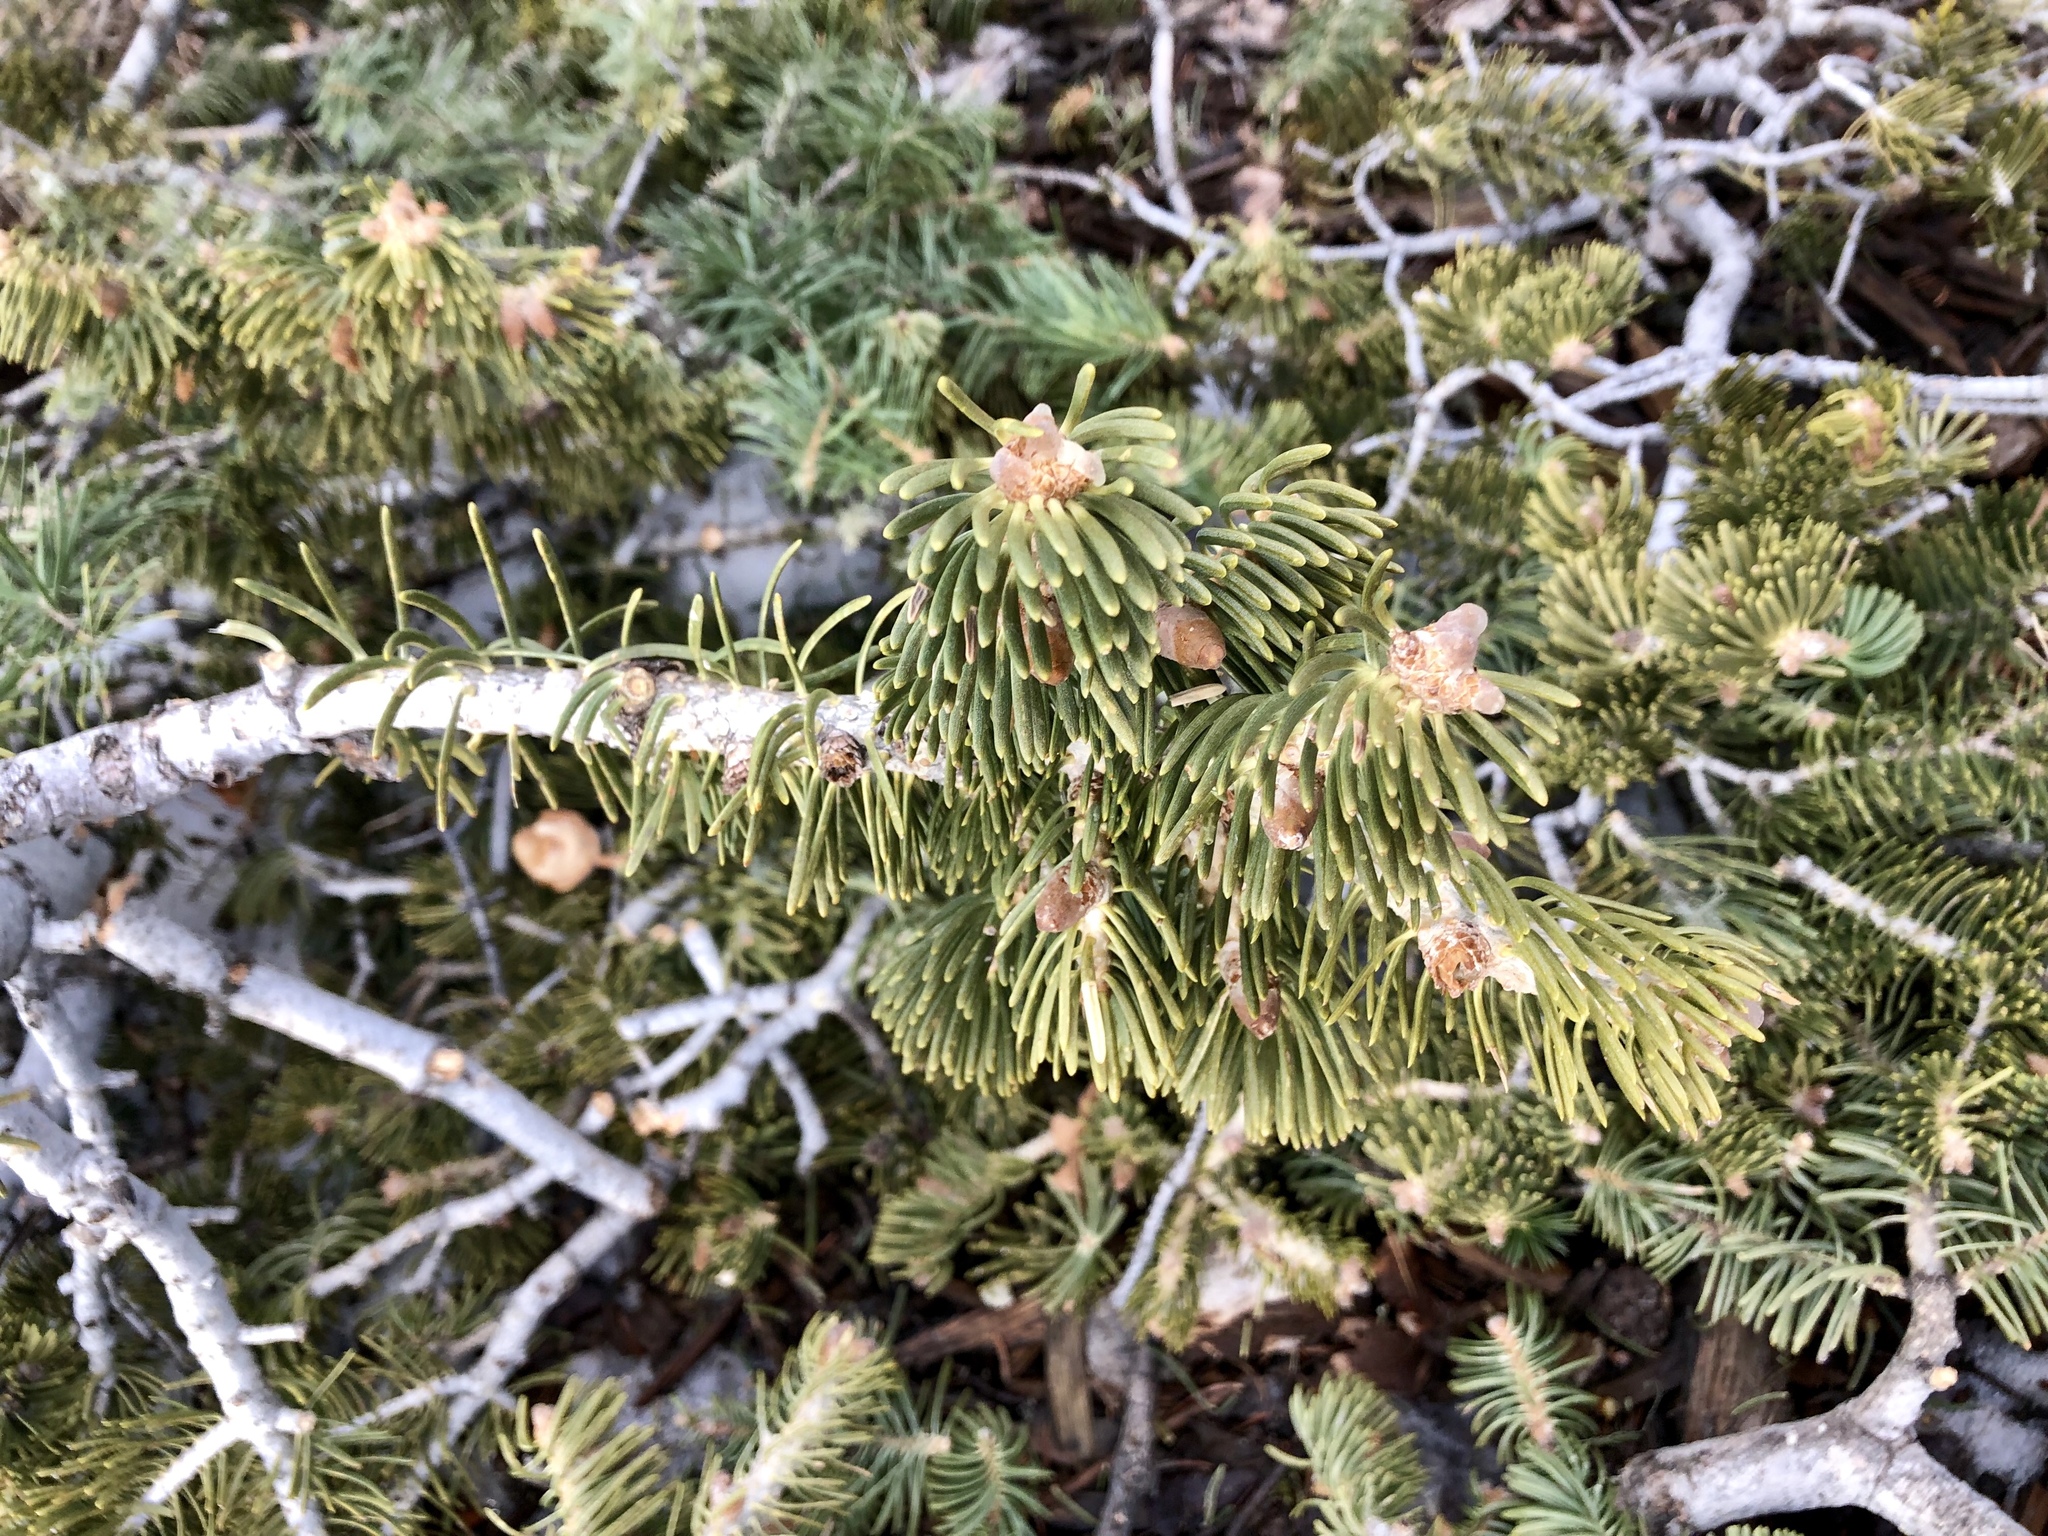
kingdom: Plantae
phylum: Tracheophyta
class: Pinopsida
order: Pinales
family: Pinaceae
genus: Abies
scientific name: Abies concolor
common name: Colorado fir
